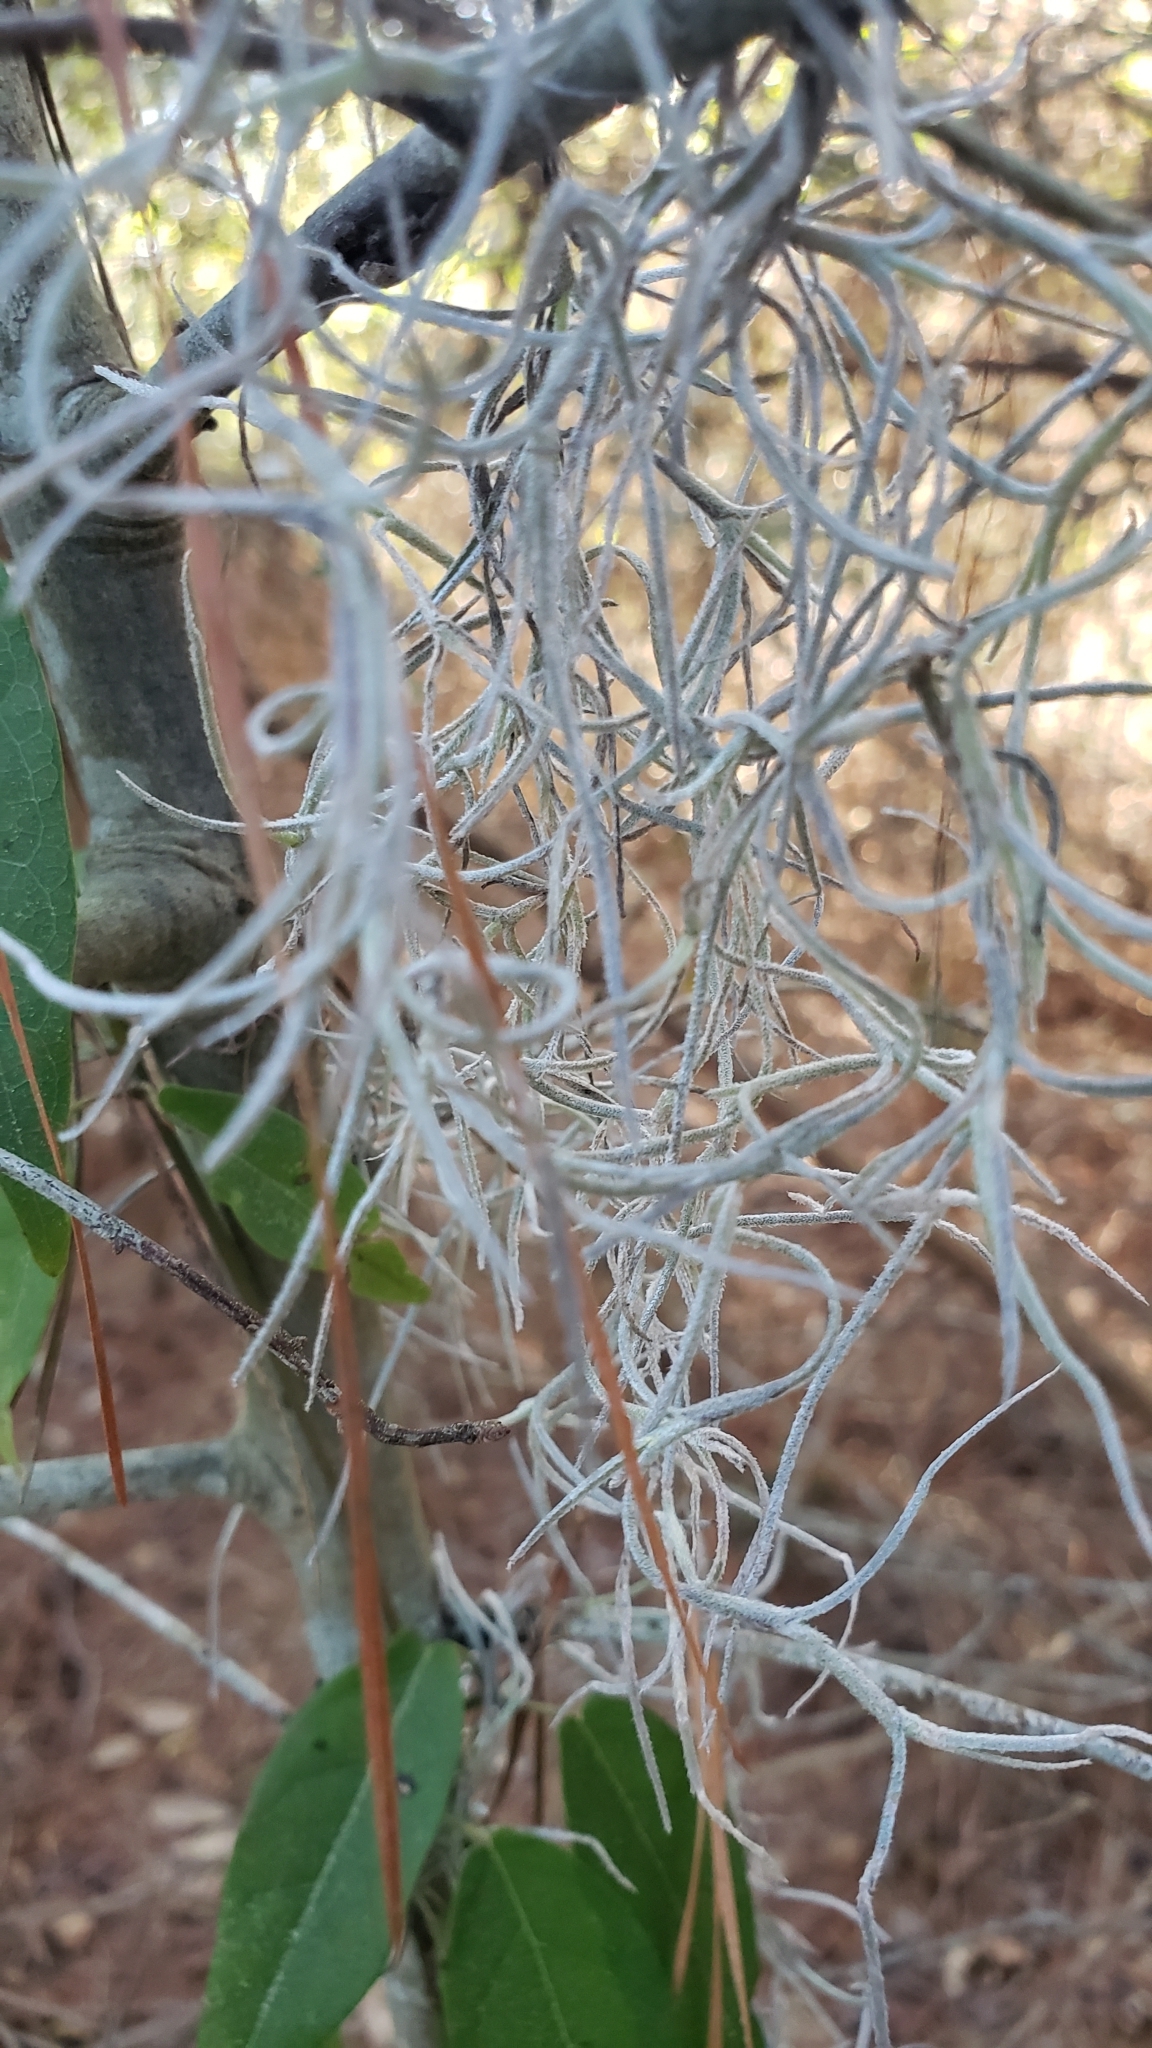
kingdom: Plantae
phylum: Tracheophyta
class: Liliopsida
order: Poales
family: Bromeliaceae
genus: Tillandsia
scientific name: Tillandsia usneoides
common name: Spanish moss
